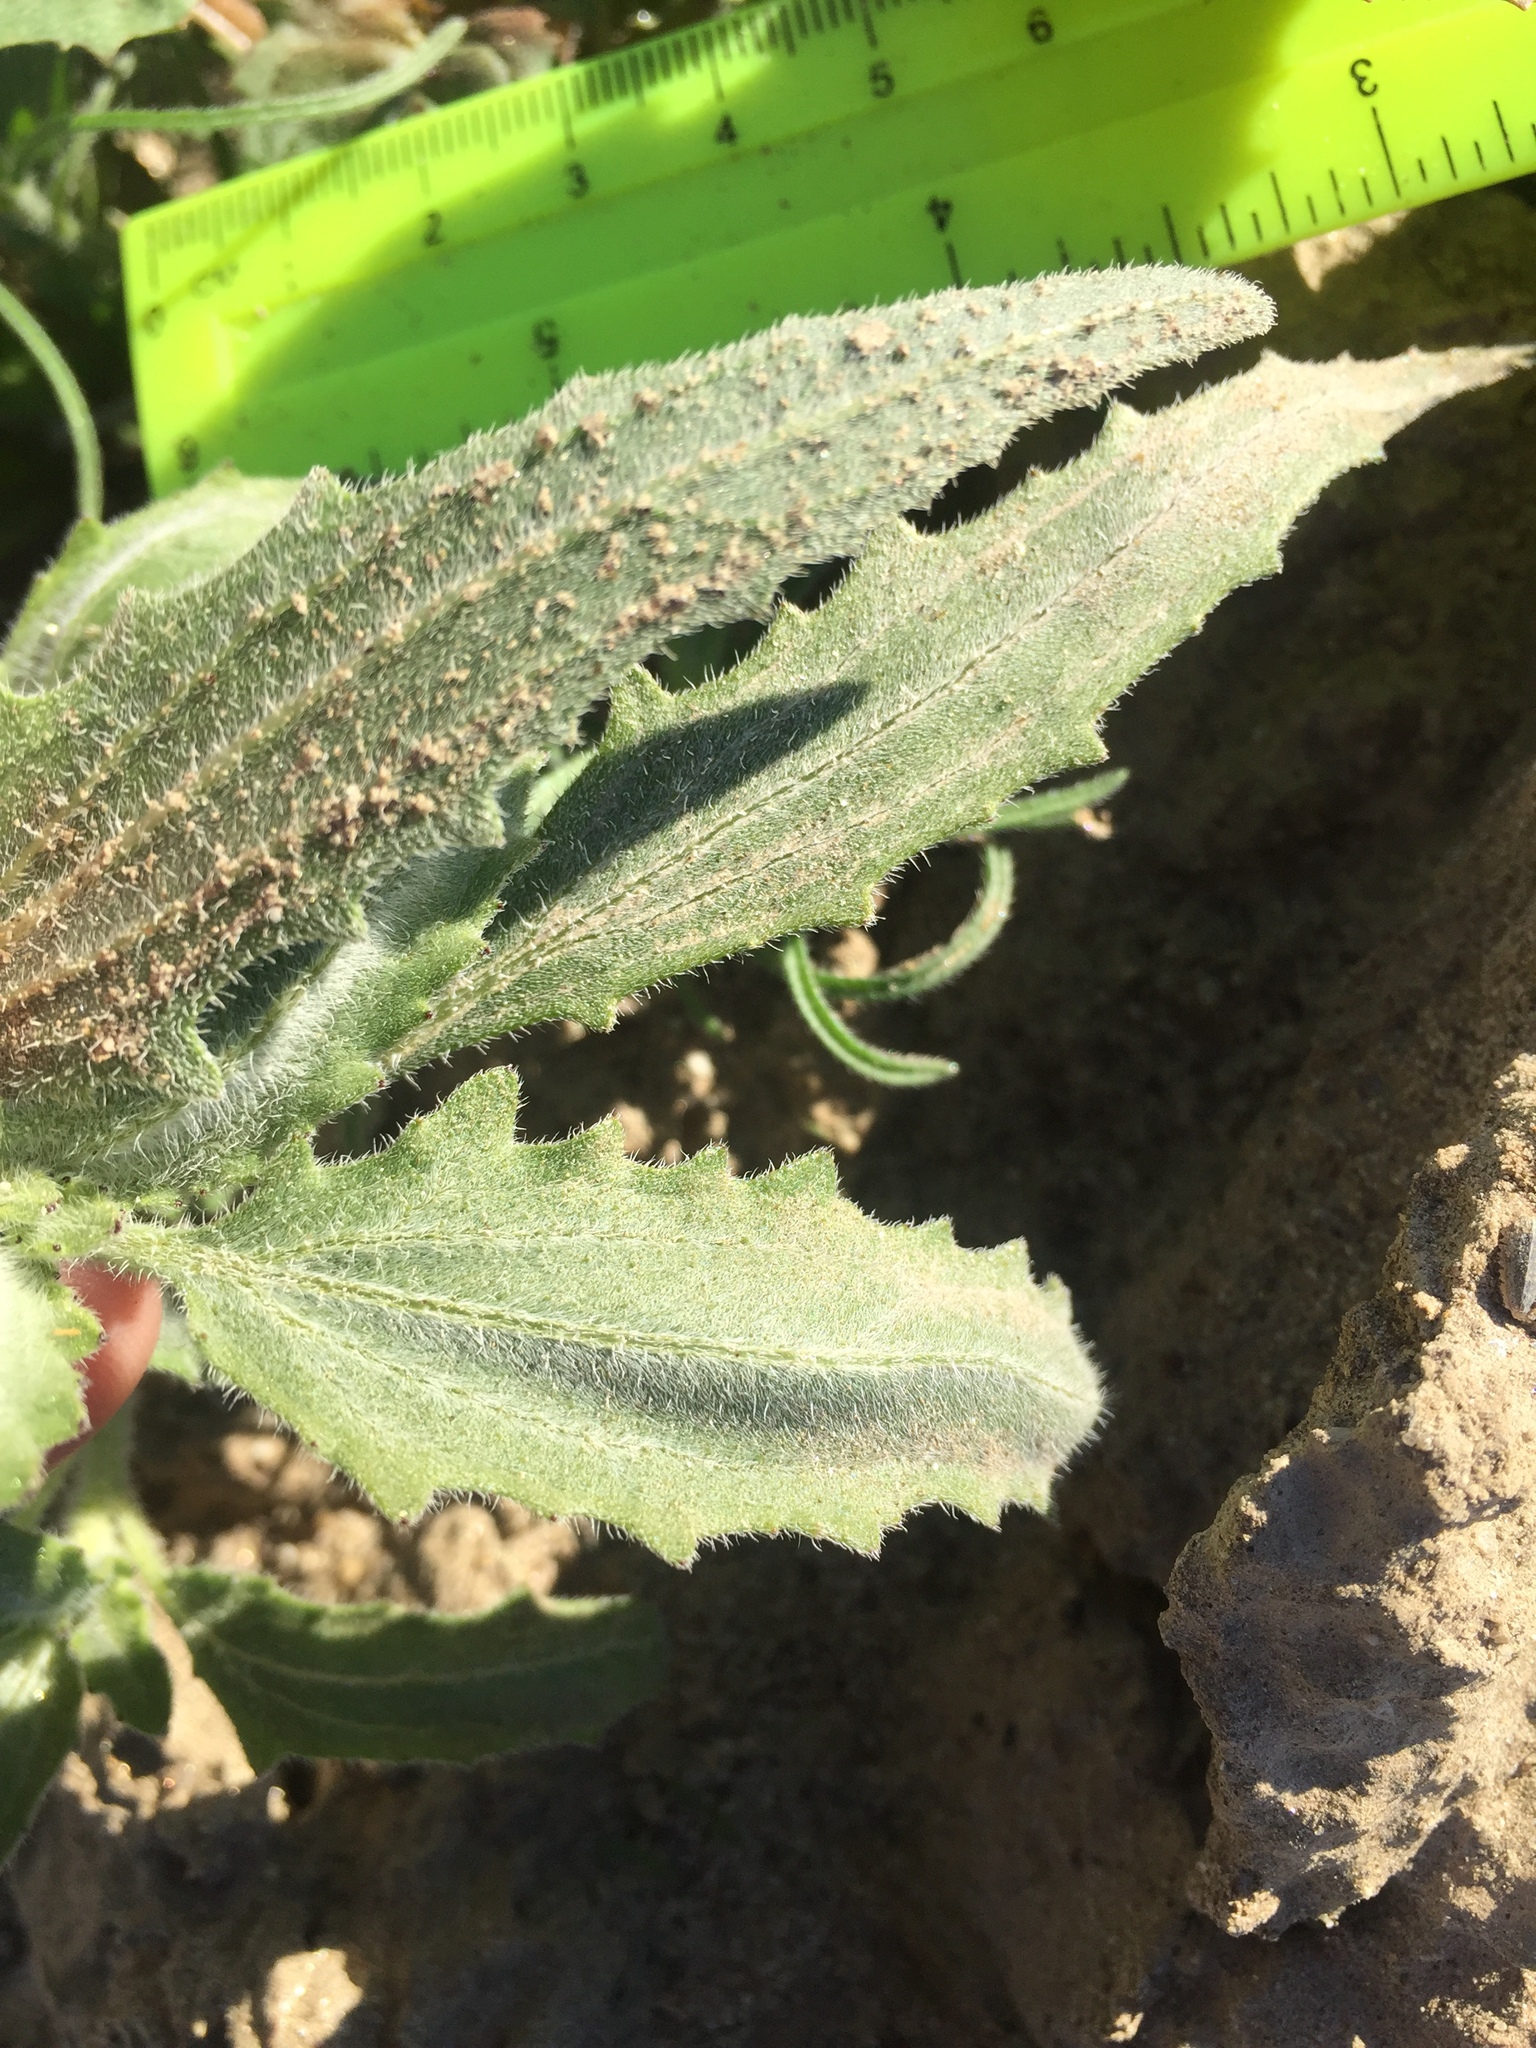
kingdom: Plantae
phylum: Tracheophyta
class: Magnoliopsida
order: Asterales
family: Asteraceae
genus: Dicoria
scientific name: Dicoria canescens
